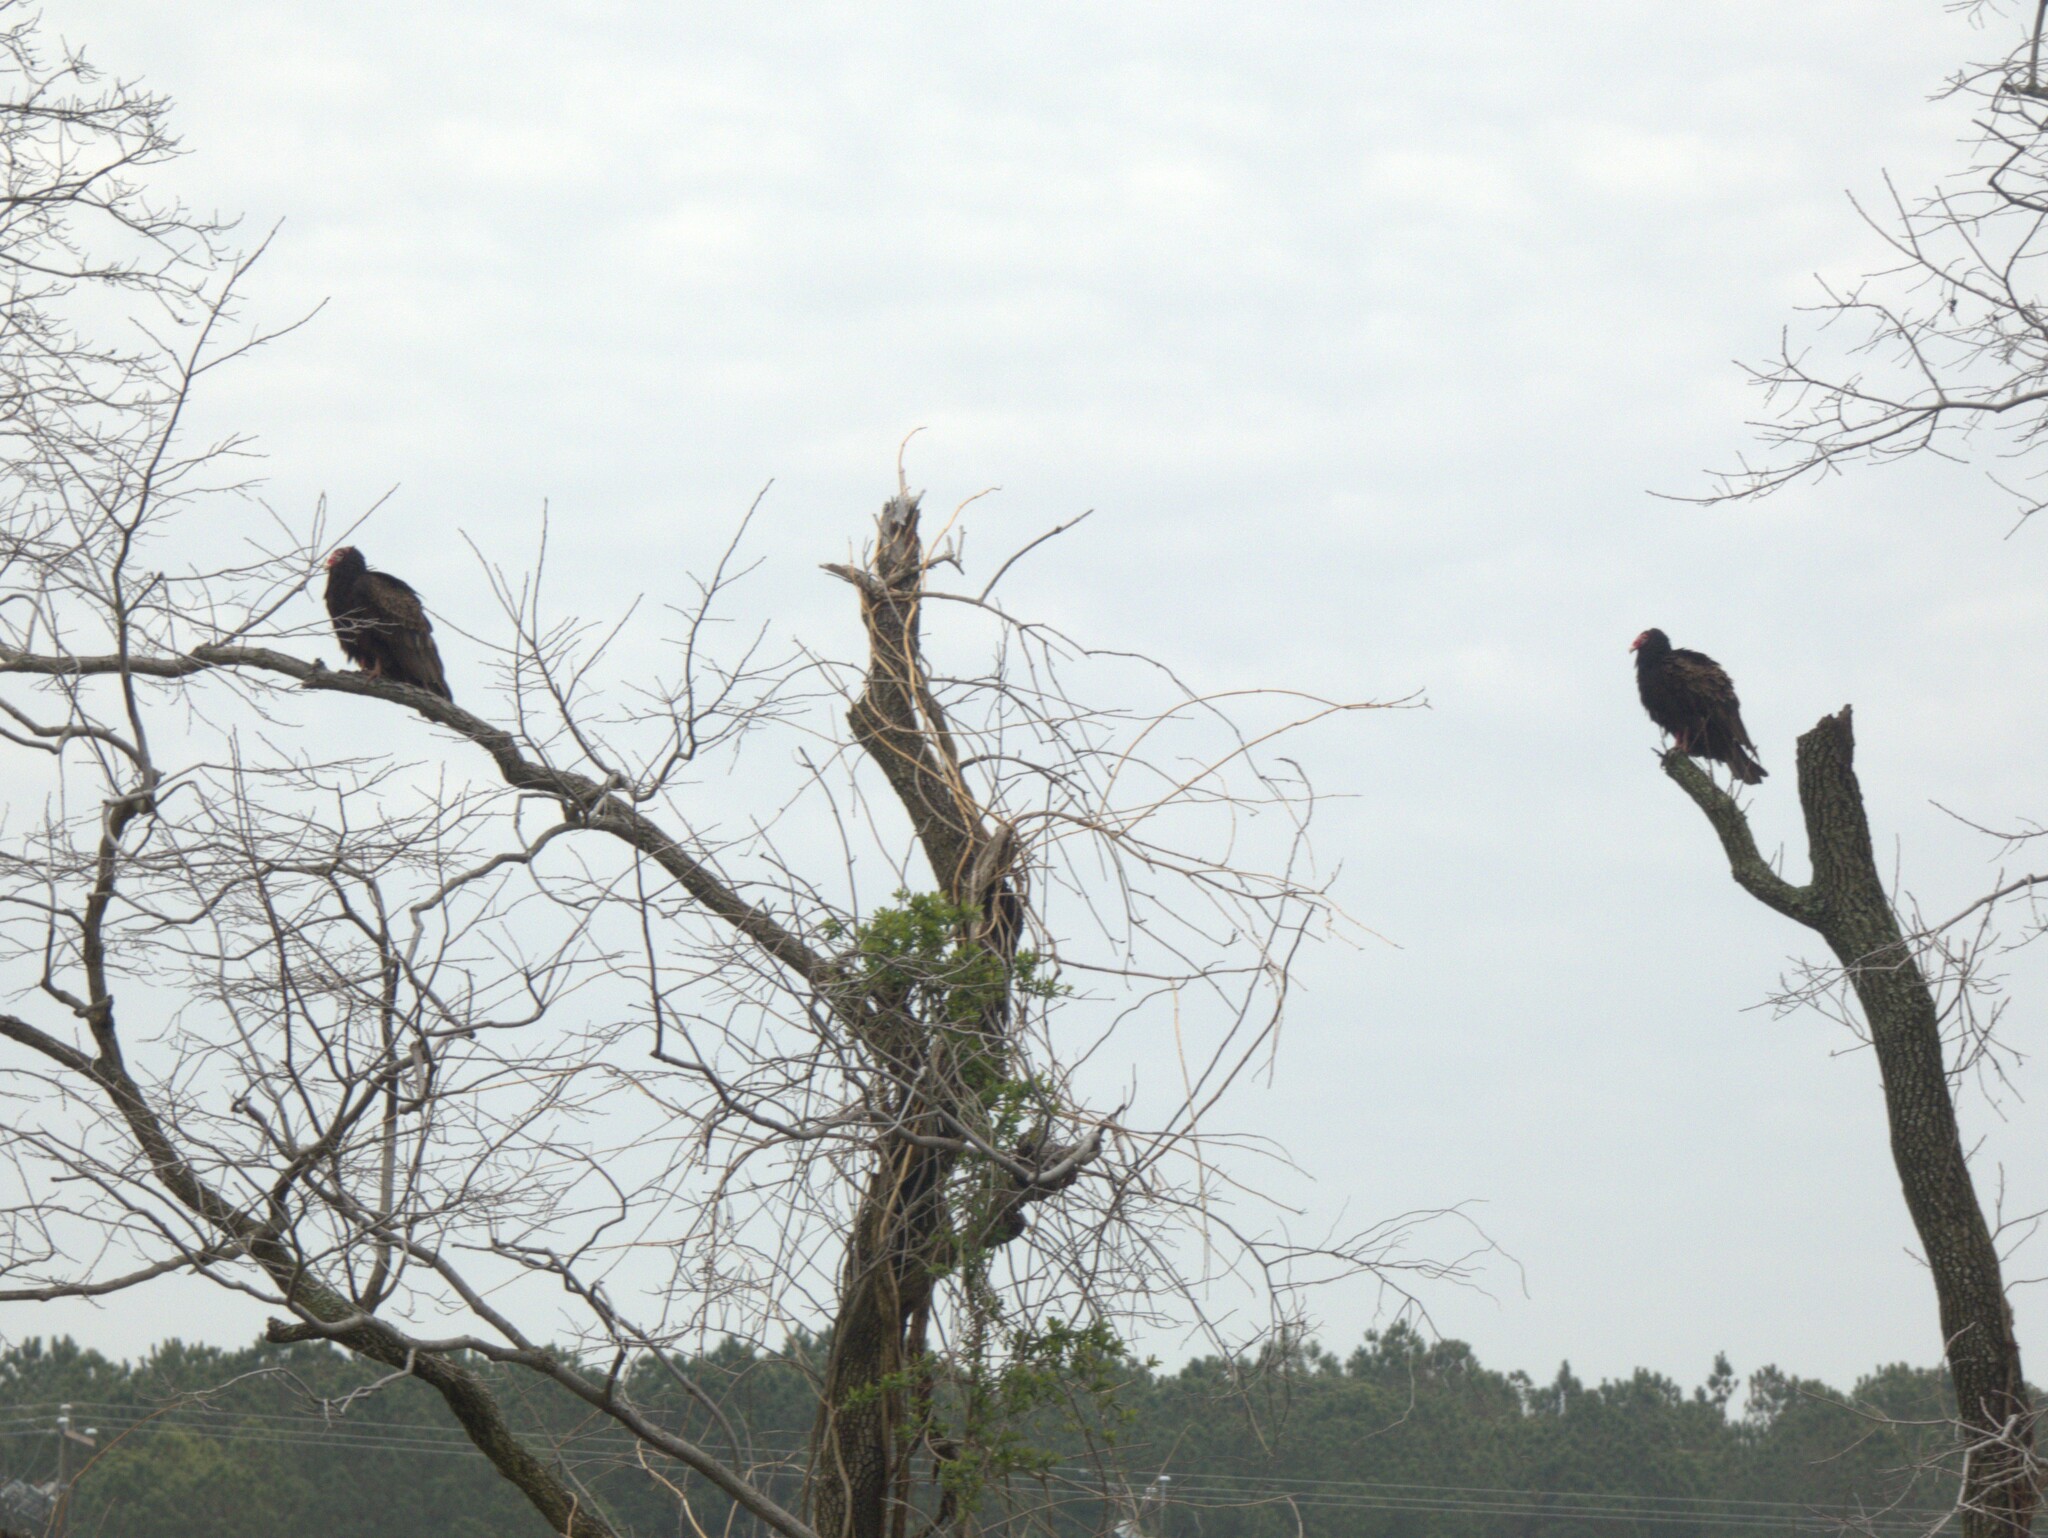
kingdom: Animalia
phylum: Chordata
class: Aves
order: Accipitriformes
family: Cathartidae
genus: Cathartes
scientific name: Cathartes aura
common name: Turkey vulture
